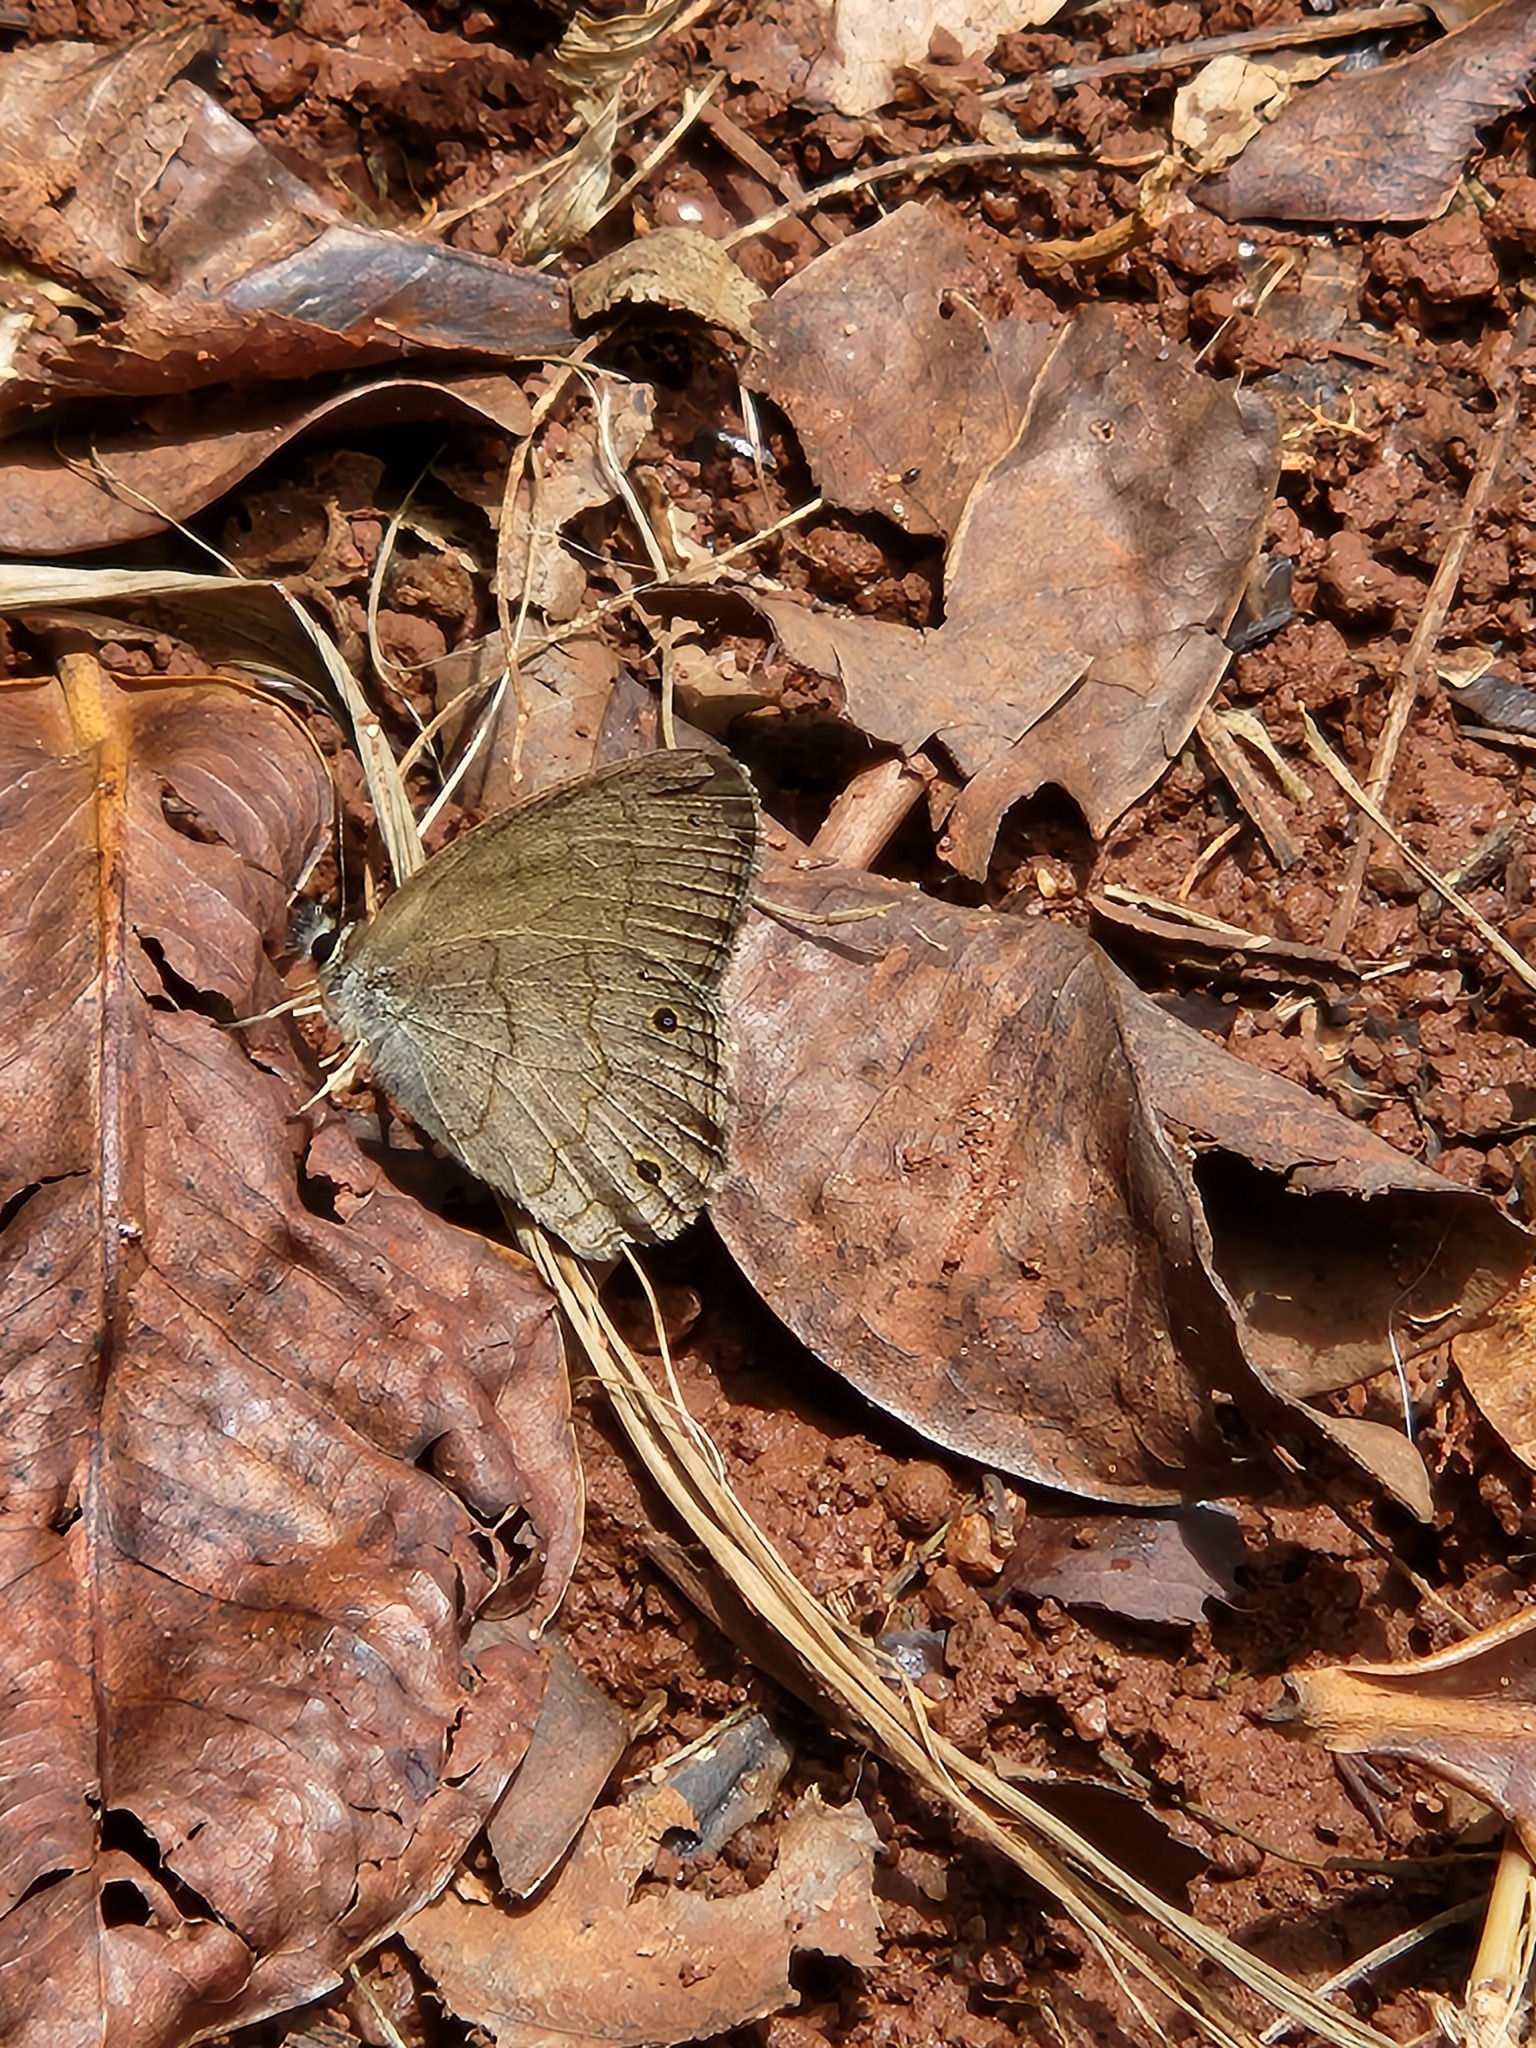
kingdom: Animalia
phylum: Arthropoda
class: Insecta
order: Lepidoptera
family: Nymphalidae
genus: Euptychia
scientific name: Euptychia Cissia eous
